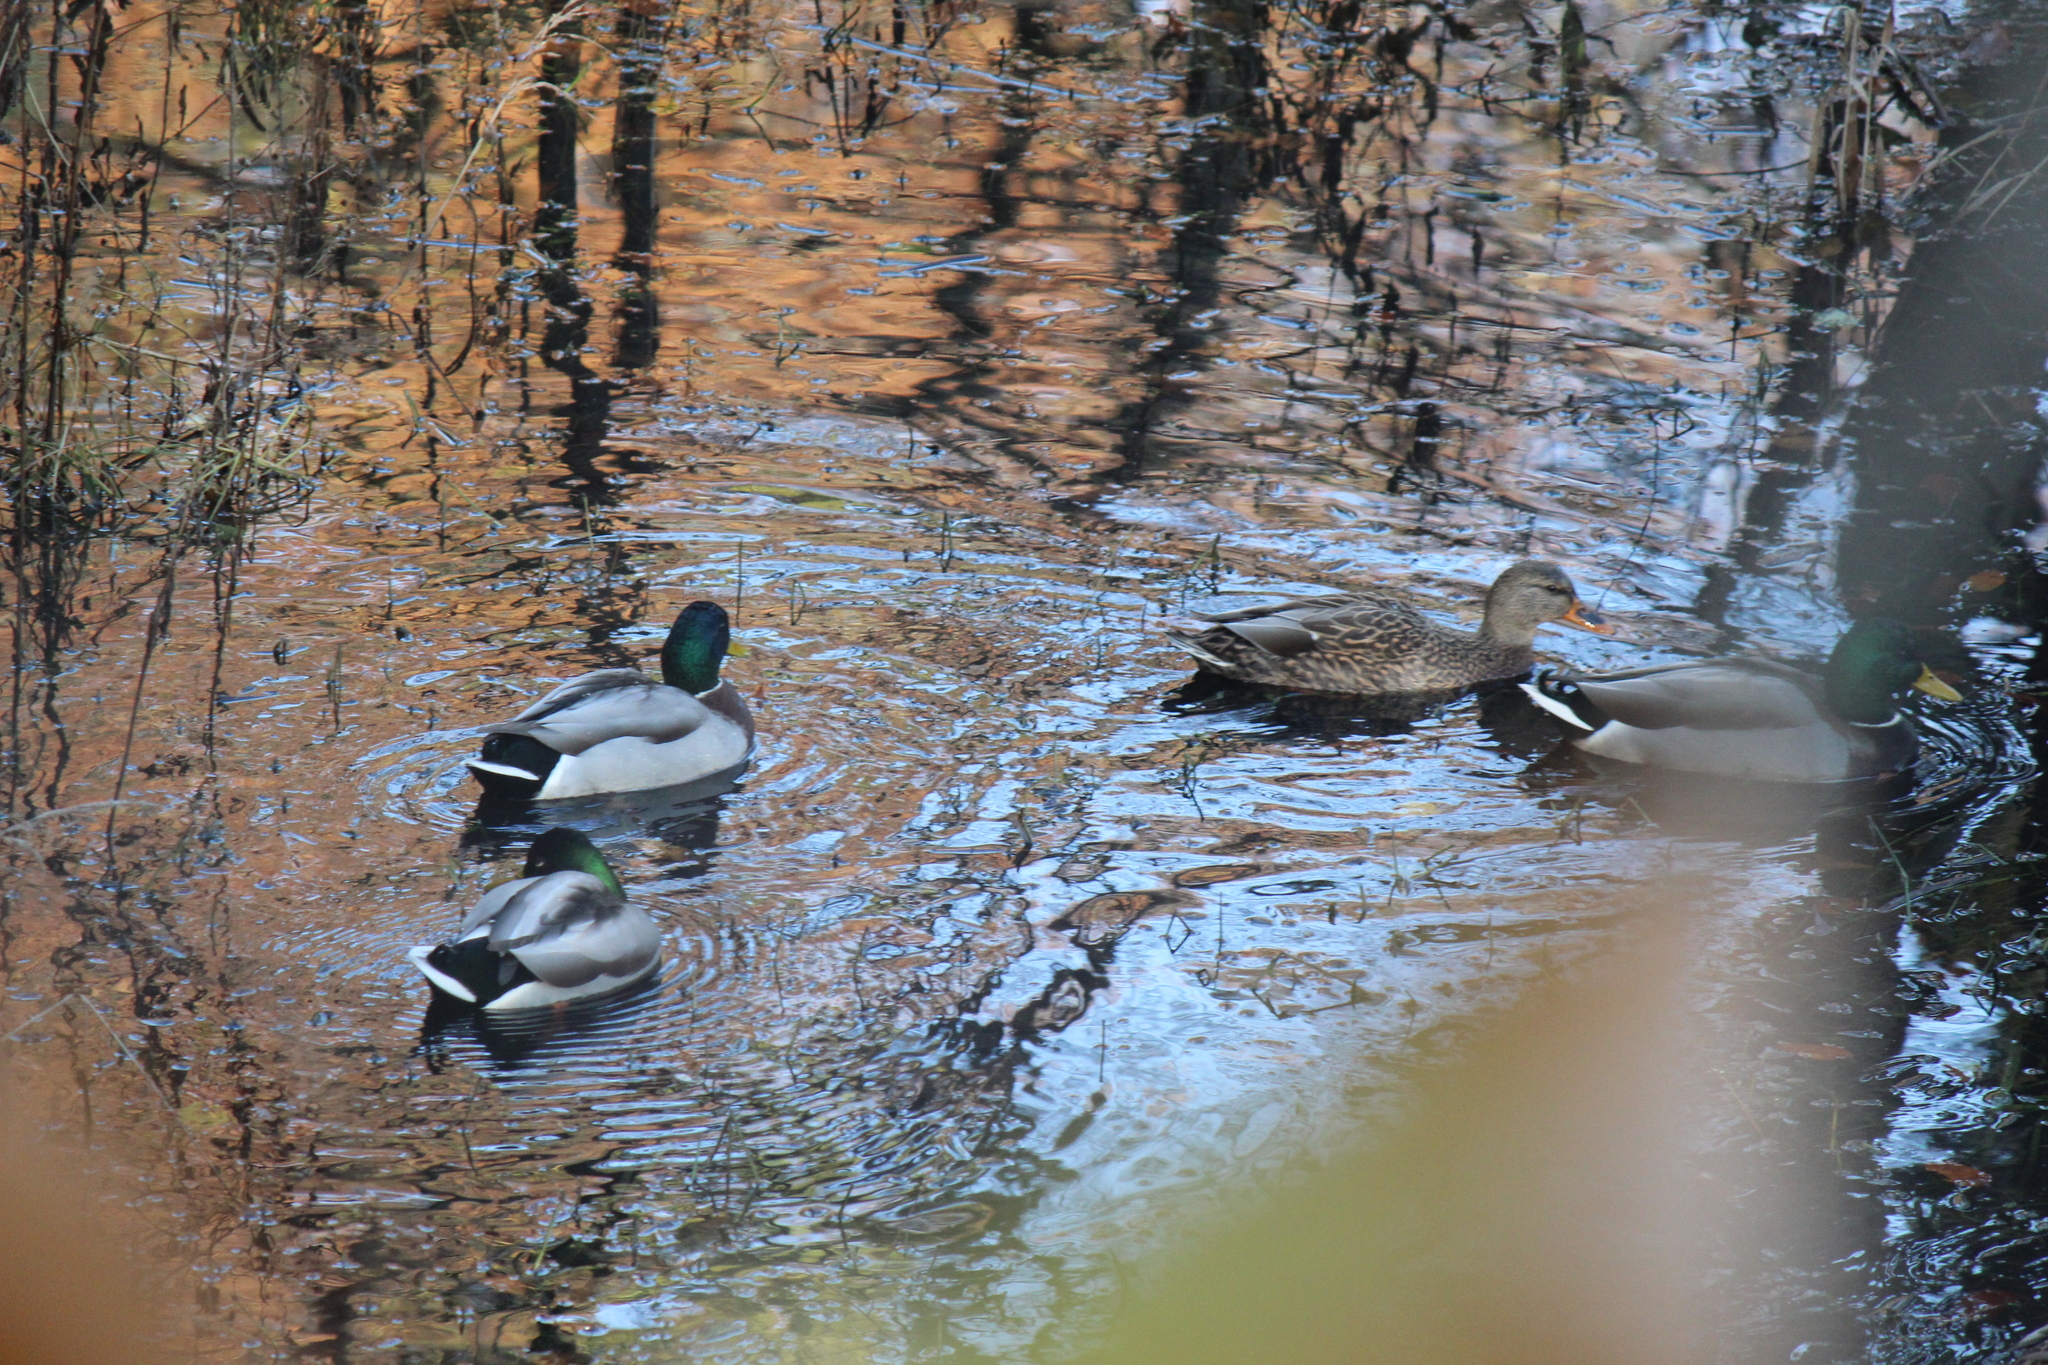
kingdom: Animalia
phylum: Chordata
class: Aves
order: Anseriformes
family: Anatidae
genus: Anas
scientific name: Anas platyrhynchos
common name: Mallard
